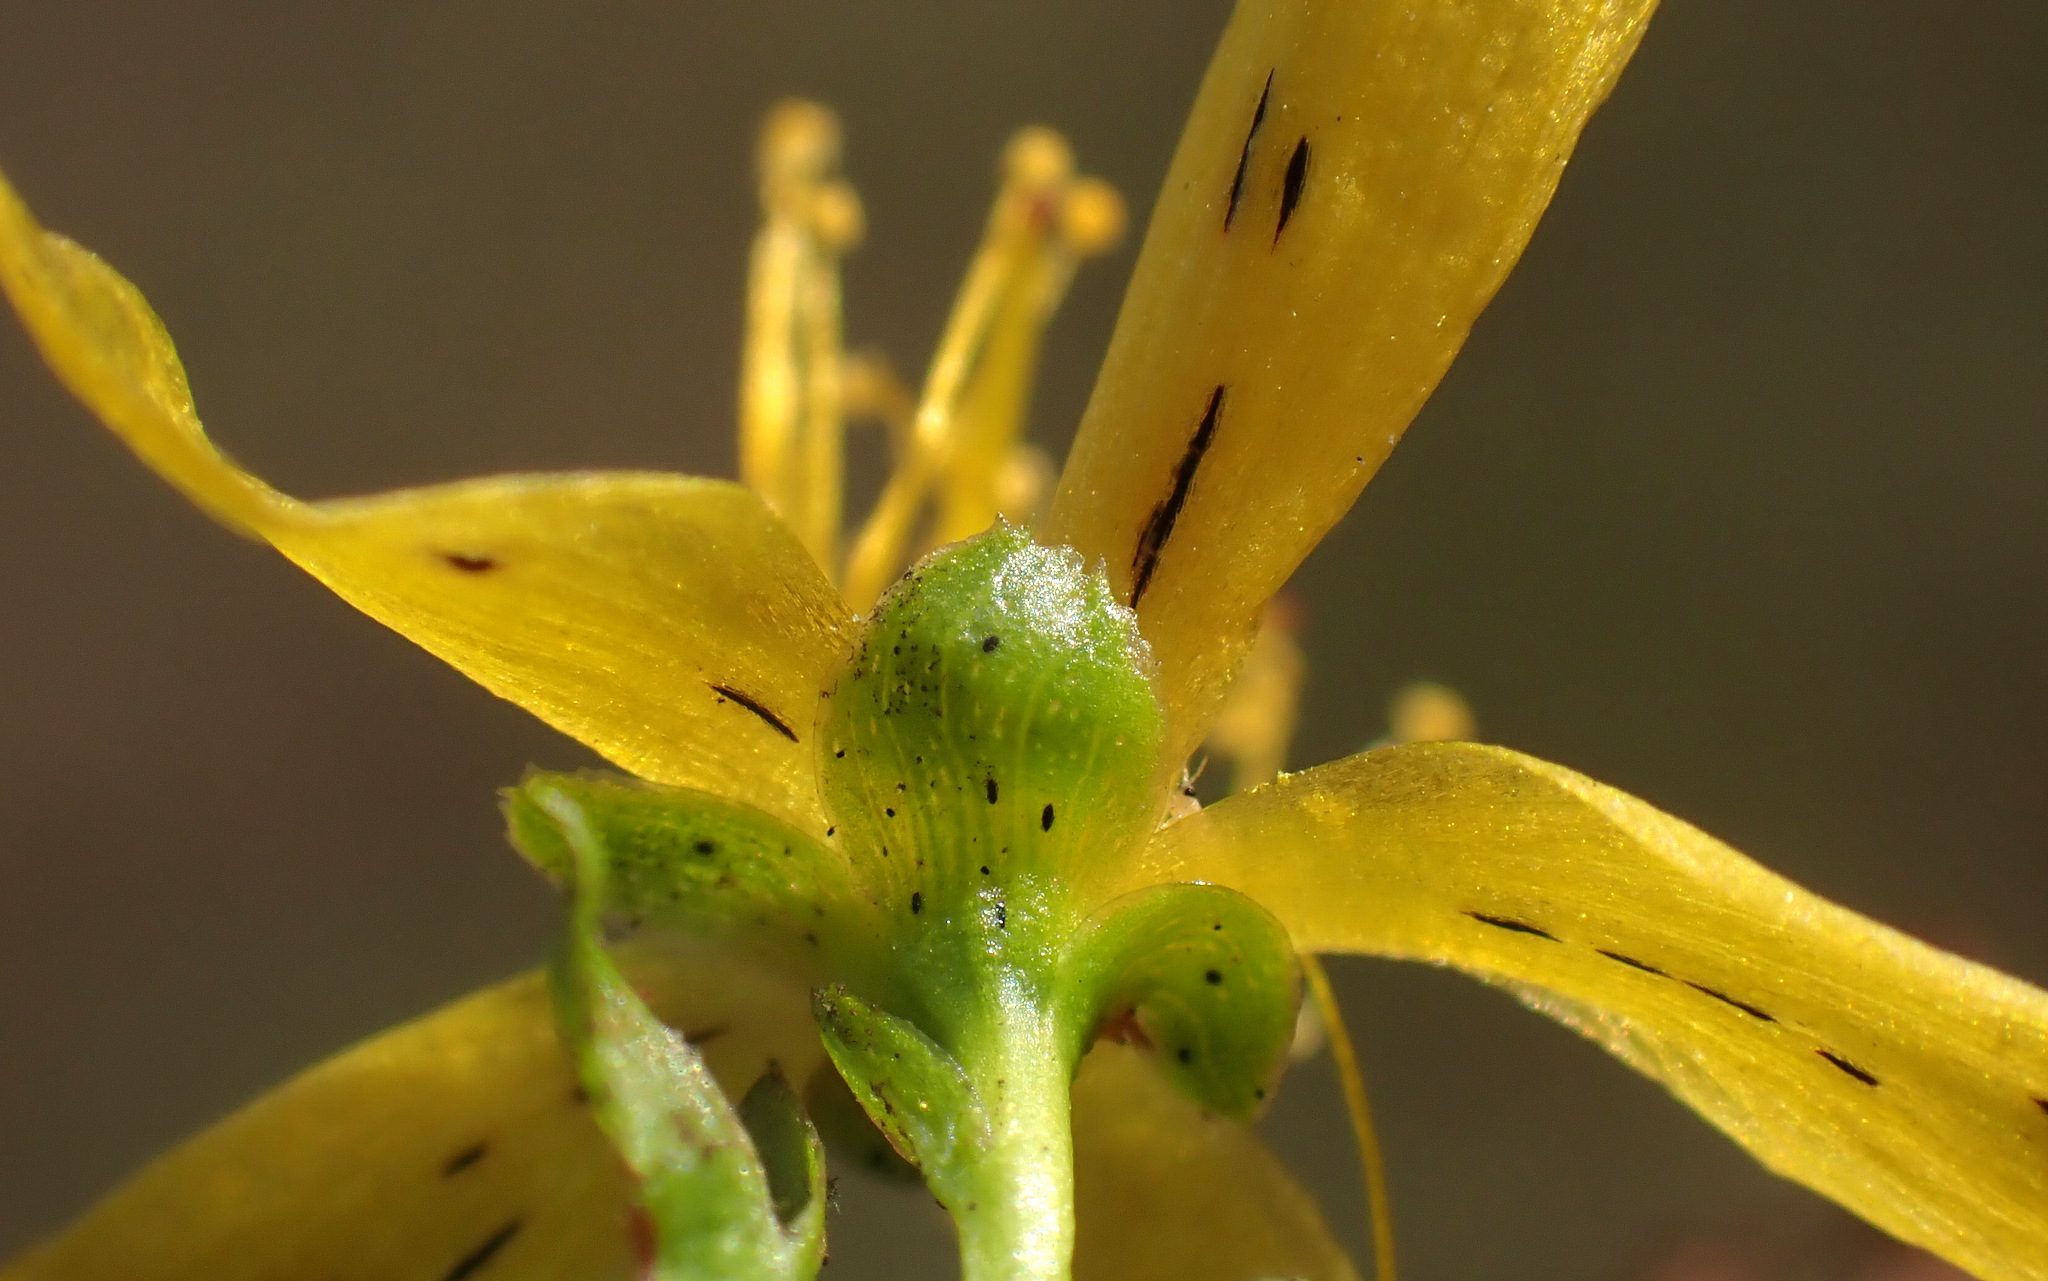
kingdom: Plantae
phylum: Tracheophyta
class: Magnoliopsida
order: Malpighiales
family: Hypericaceae
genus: Hypericum
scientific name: Hypericum dubium
